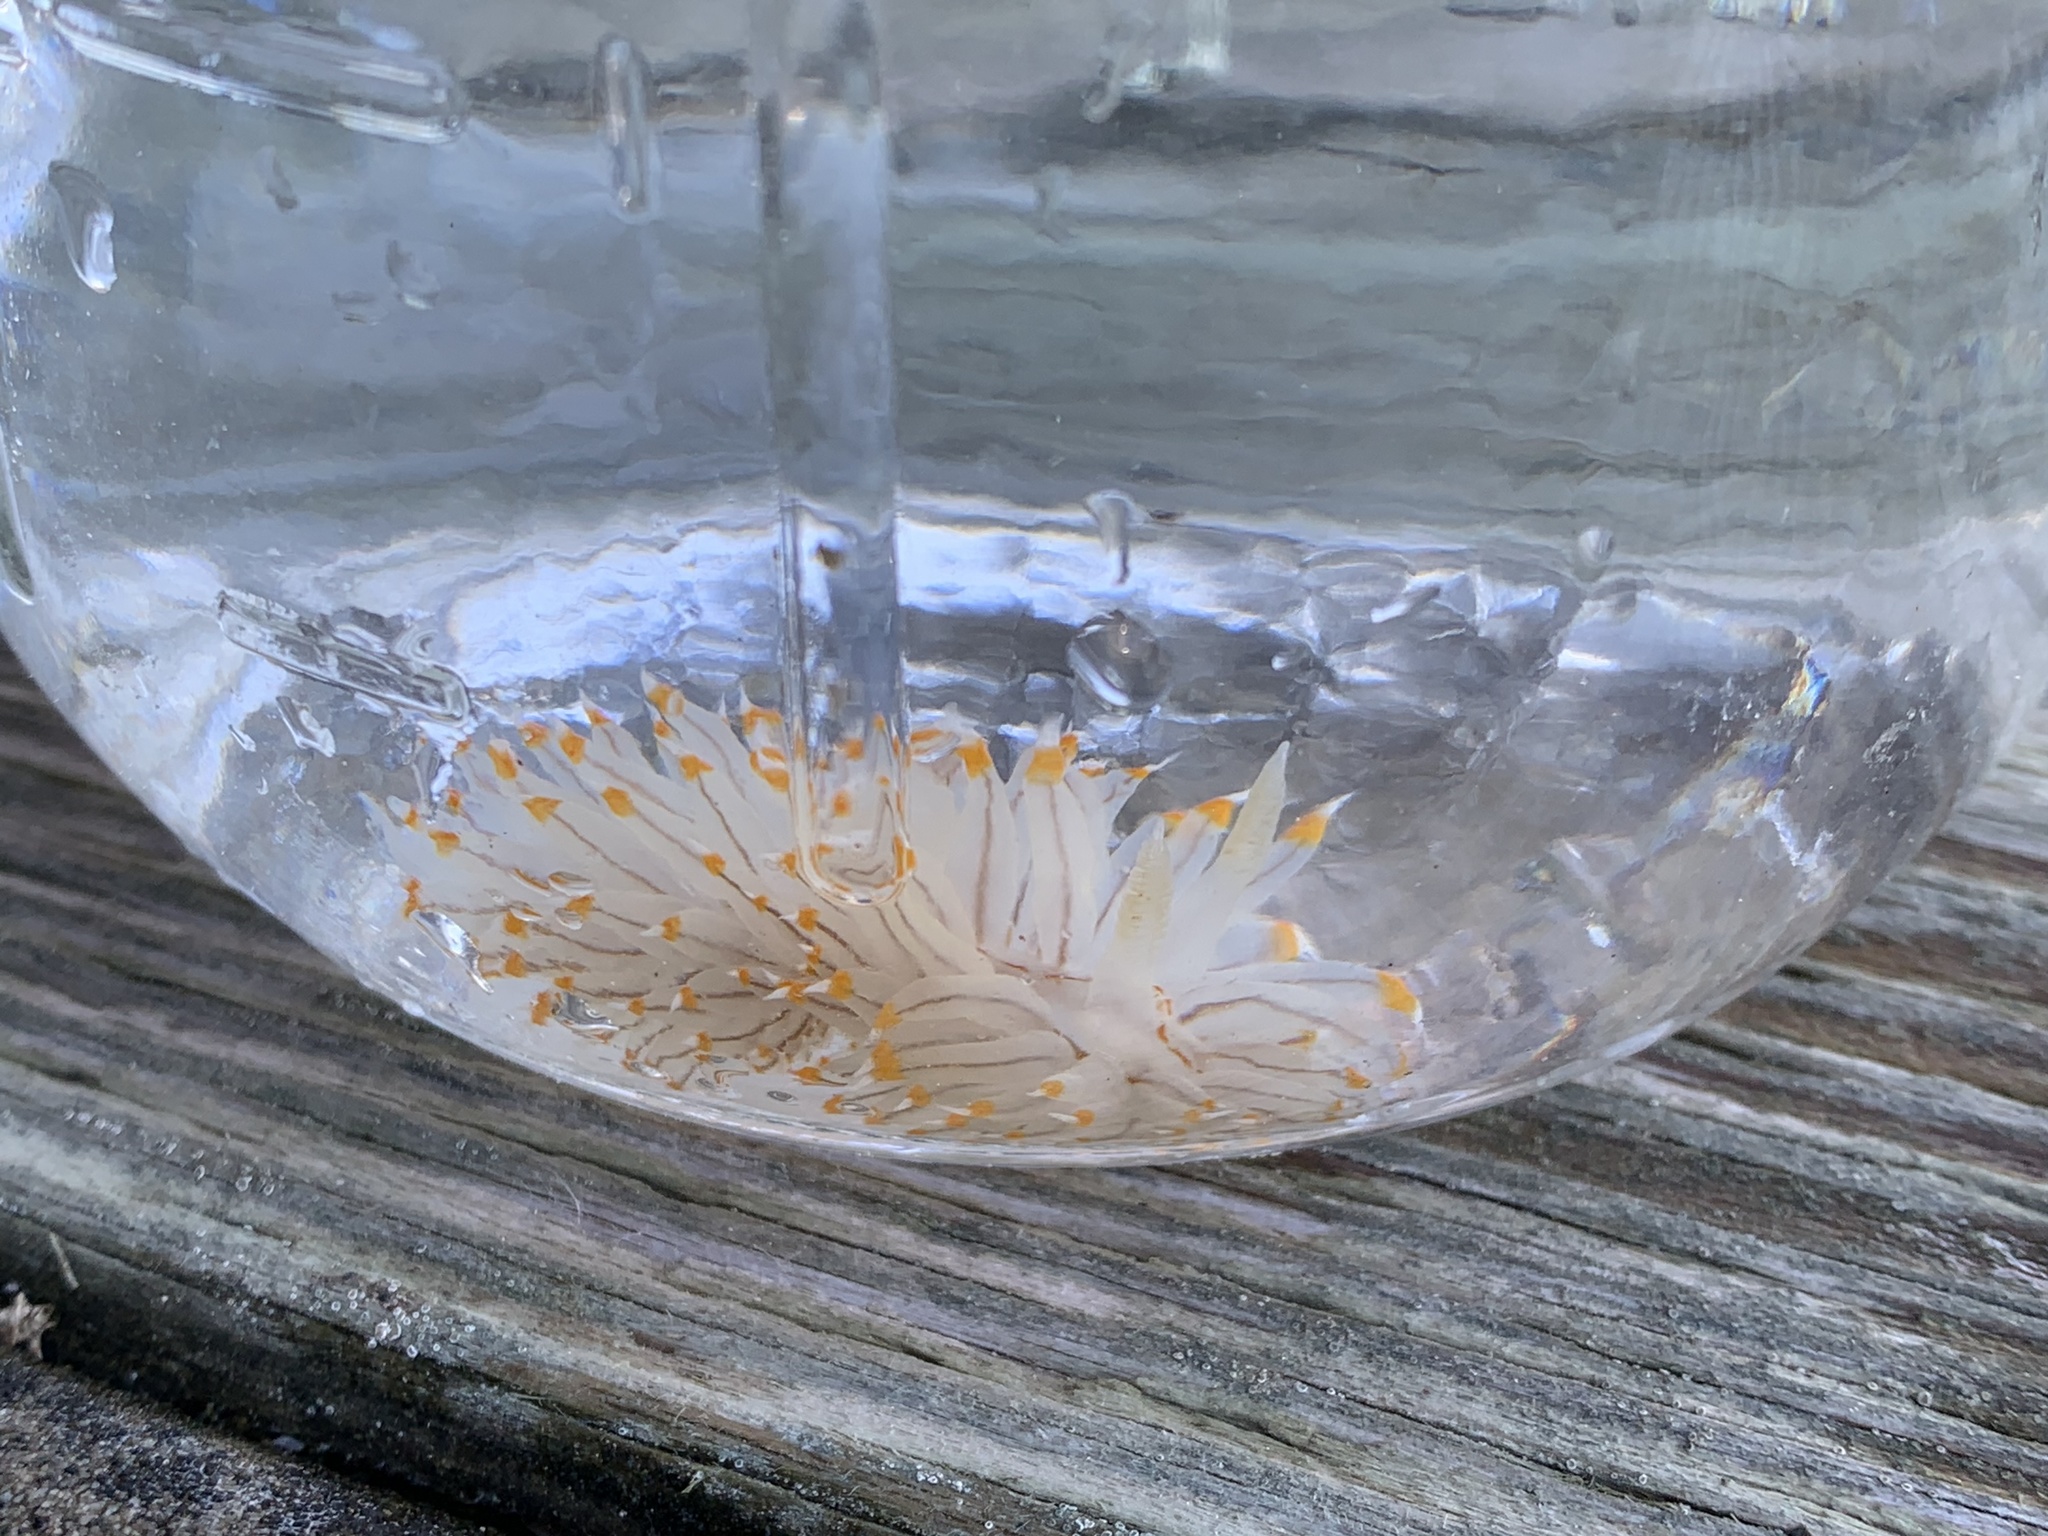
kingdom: Animalia
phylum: Mollusca
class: Gastropoda
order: Nudibranchia
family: Janolidae
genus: Antiopella
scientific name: Antiopella fusca
